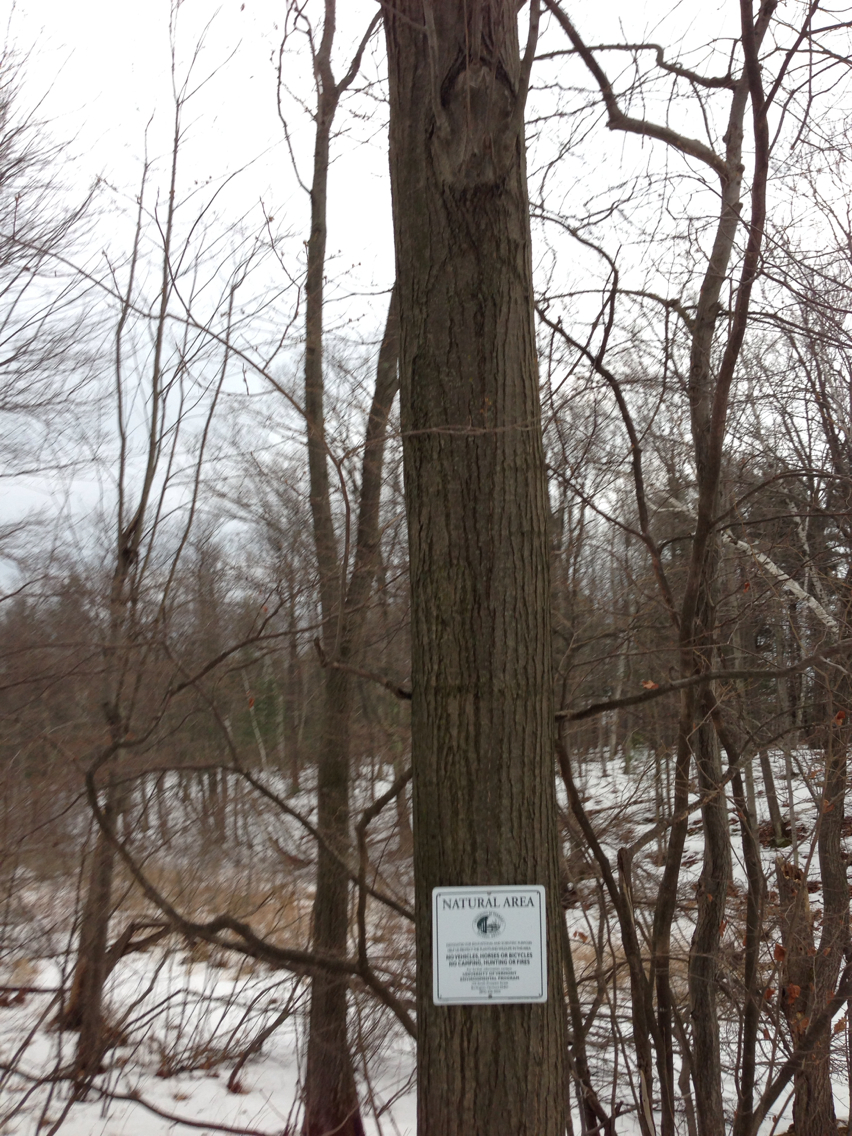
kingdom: Plantae
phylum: Tracheophyta
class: Magnoliopsida
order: Fagales
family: Fagaceae
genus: Quercus
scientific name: Quercus rubra
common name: Red oak
